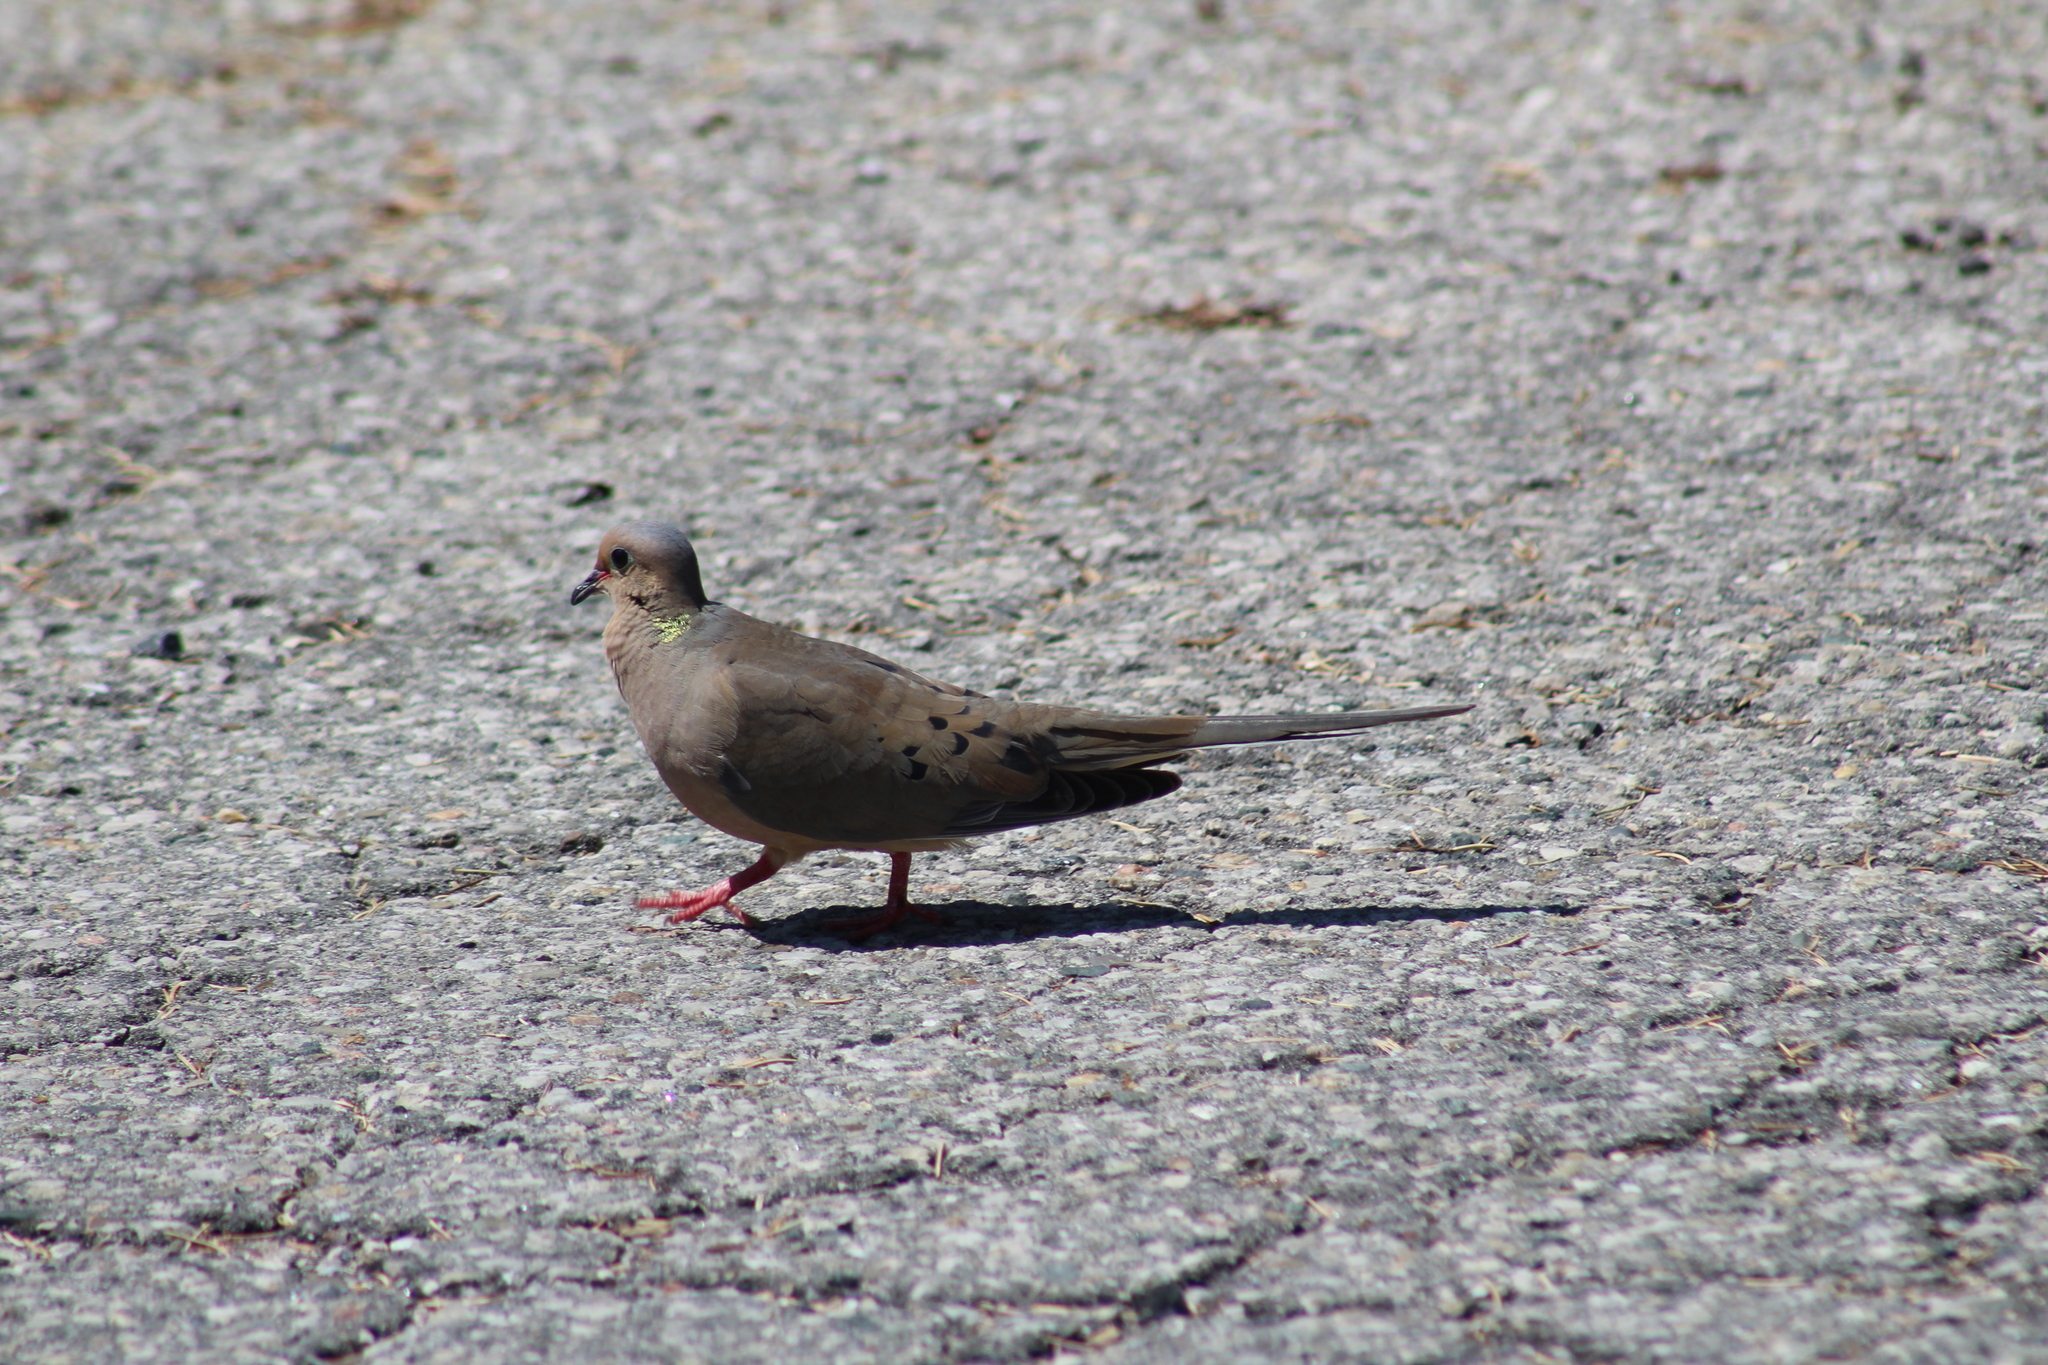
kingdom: Animalia
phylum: Chordata
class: Aves
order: Columbiformes
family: Columbidae
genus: Zenaida
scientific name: Zenaida macroura
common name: Mourning dove
